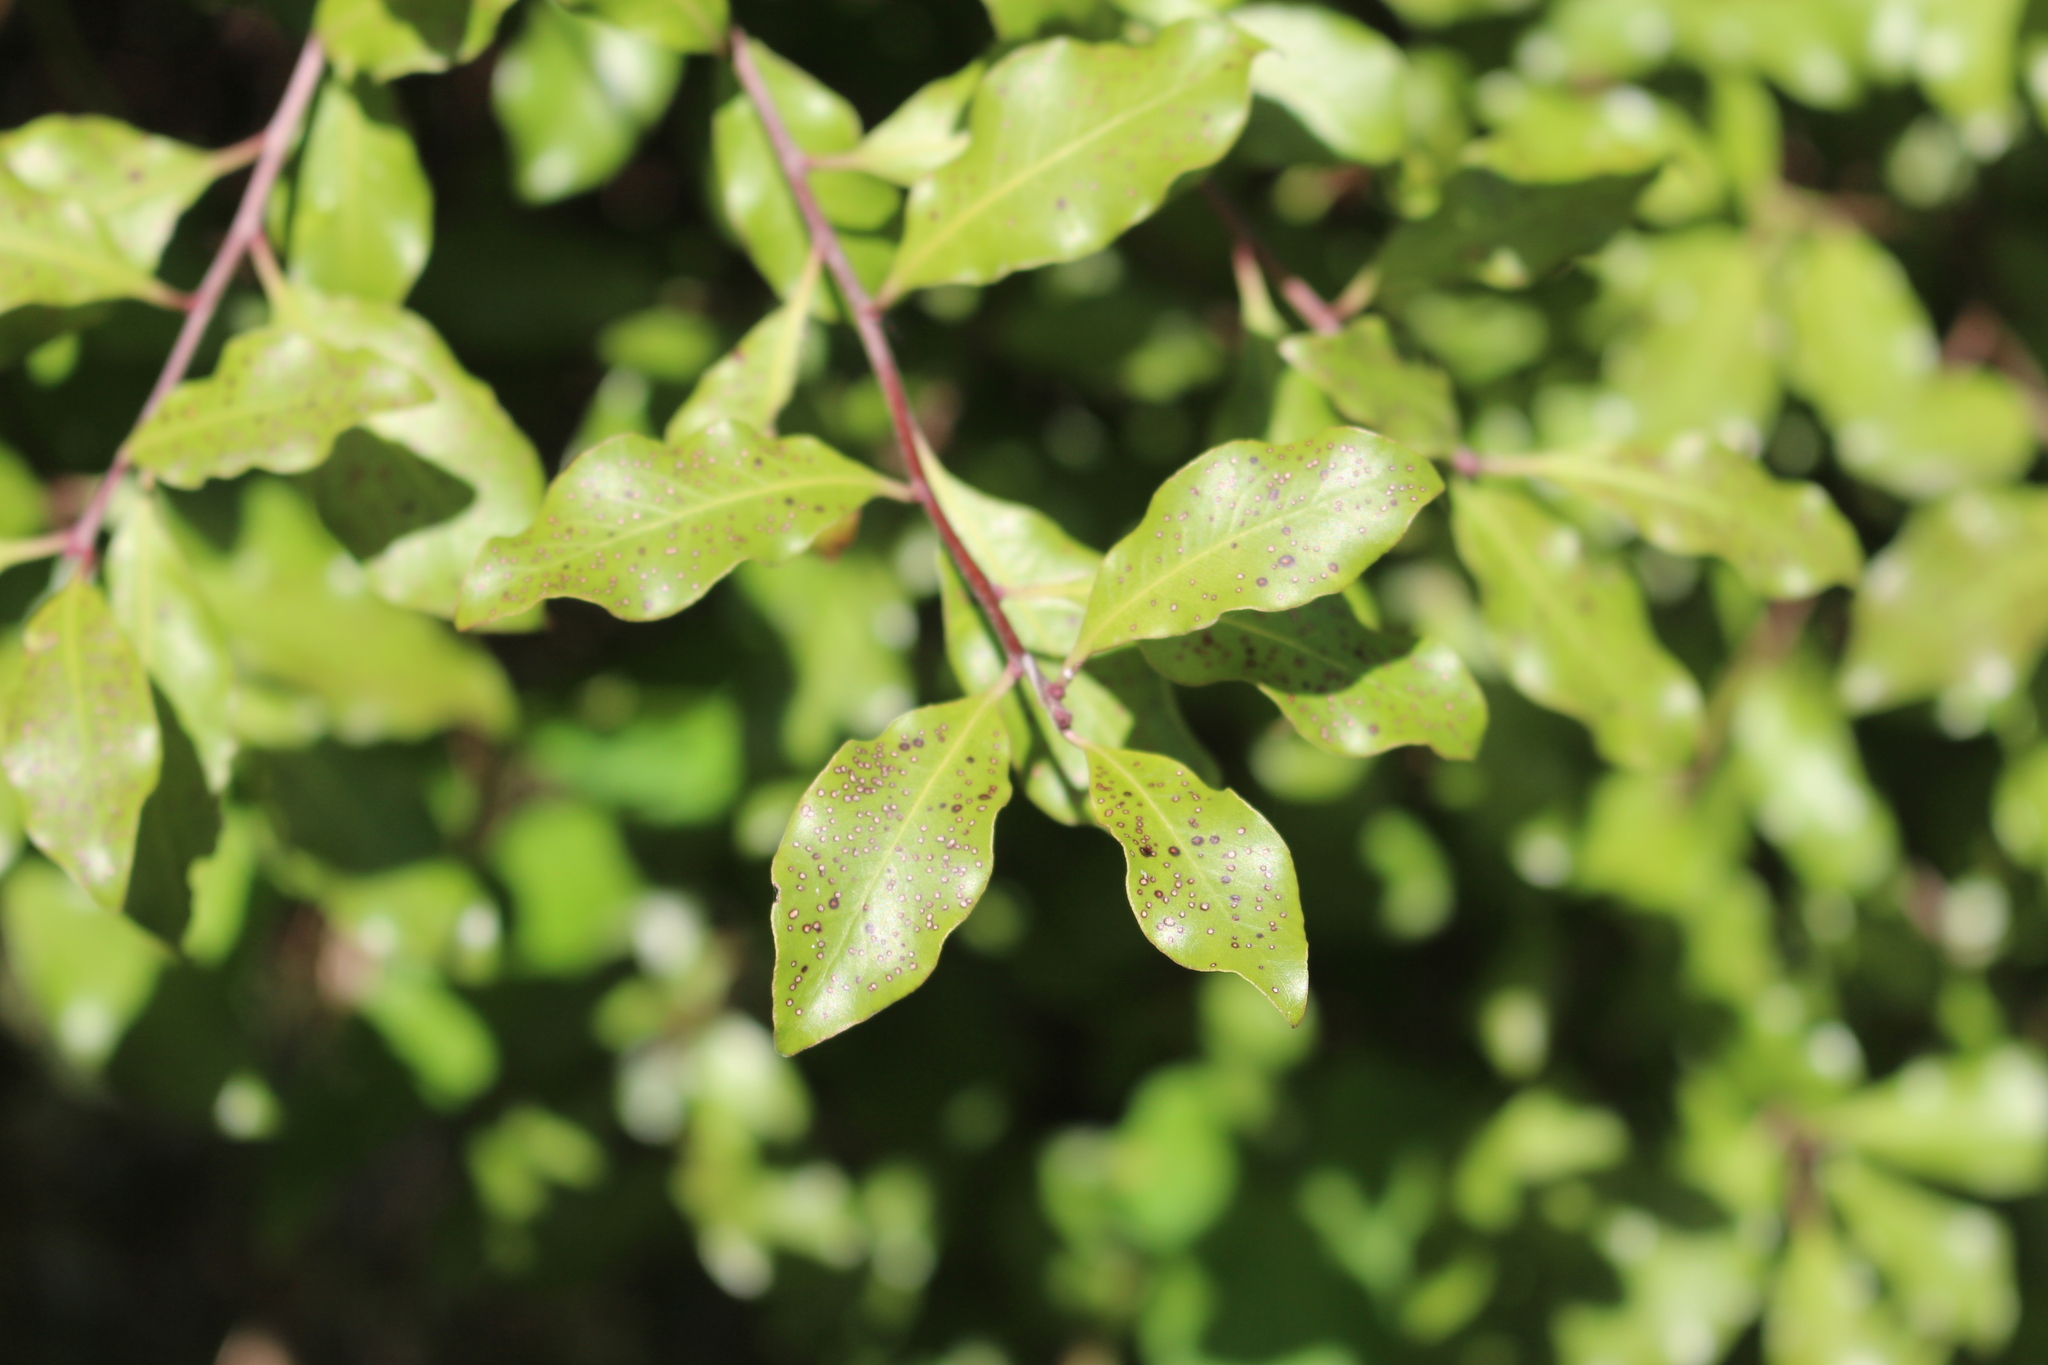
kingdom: Plantae
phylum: Tracheophyta
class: Magnoliopsida
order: Apiales
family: Pittosporaceae
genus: Pittosporum
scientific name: Pittosporum tenuifolium
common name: Kohuhu
